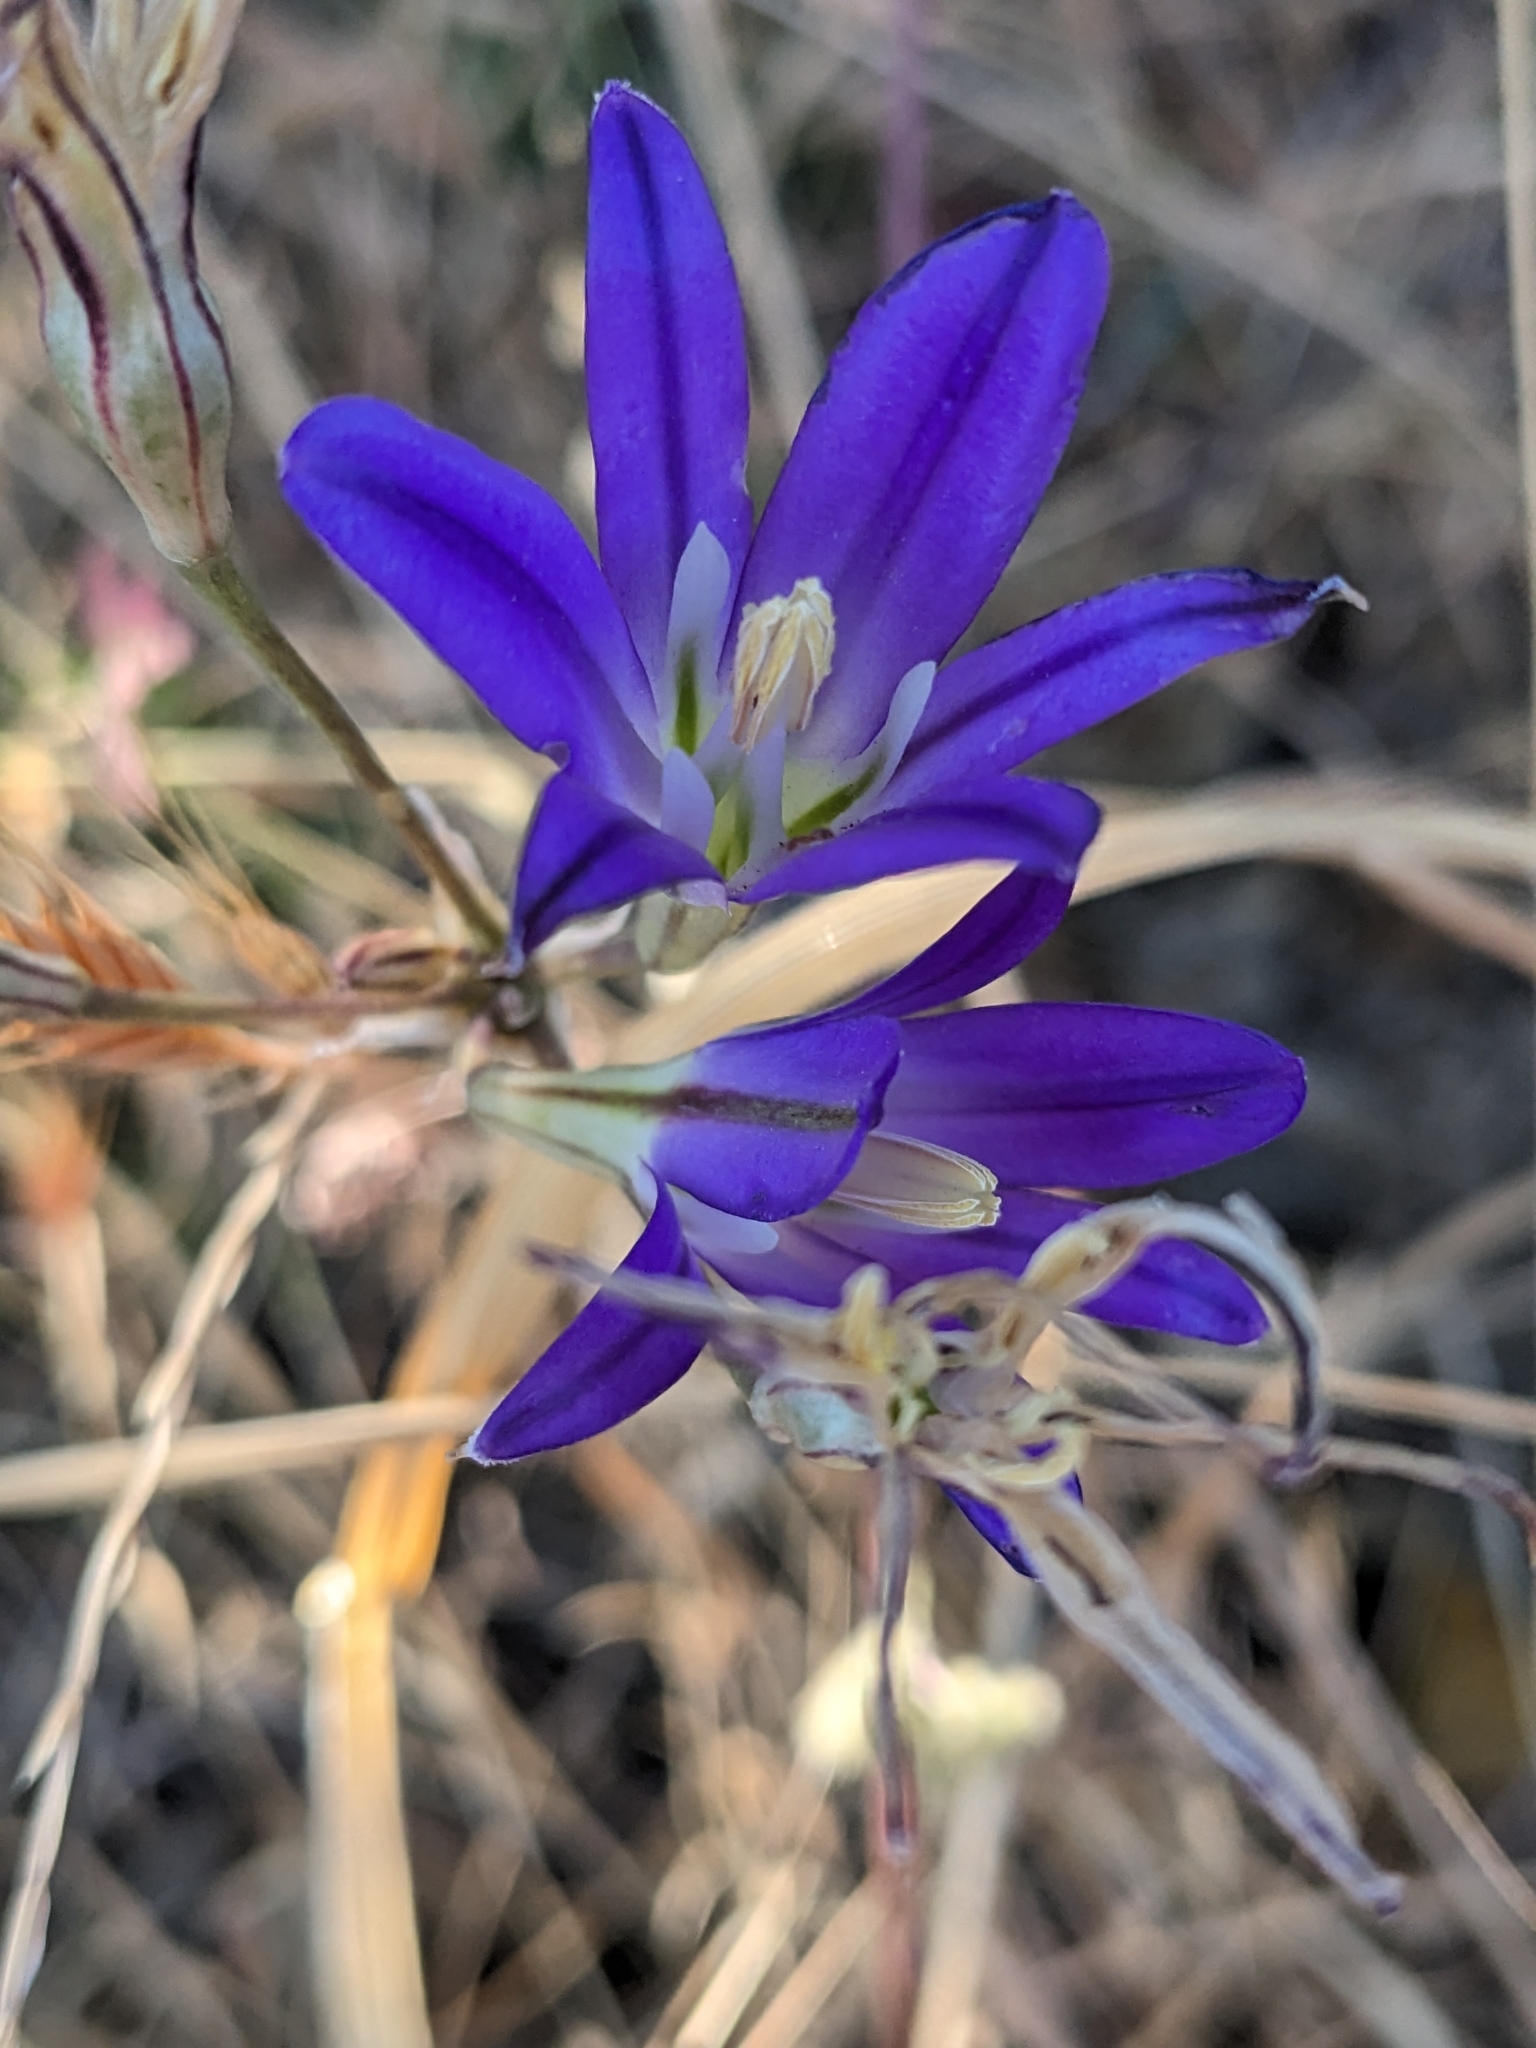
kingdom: Plantae
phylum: Tracheophyta
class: Liliopsida
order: Asparagales
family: Asparagaceae
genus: Brodiaea
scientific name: Brodiaea elegans
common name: Elegant cluster-lily
